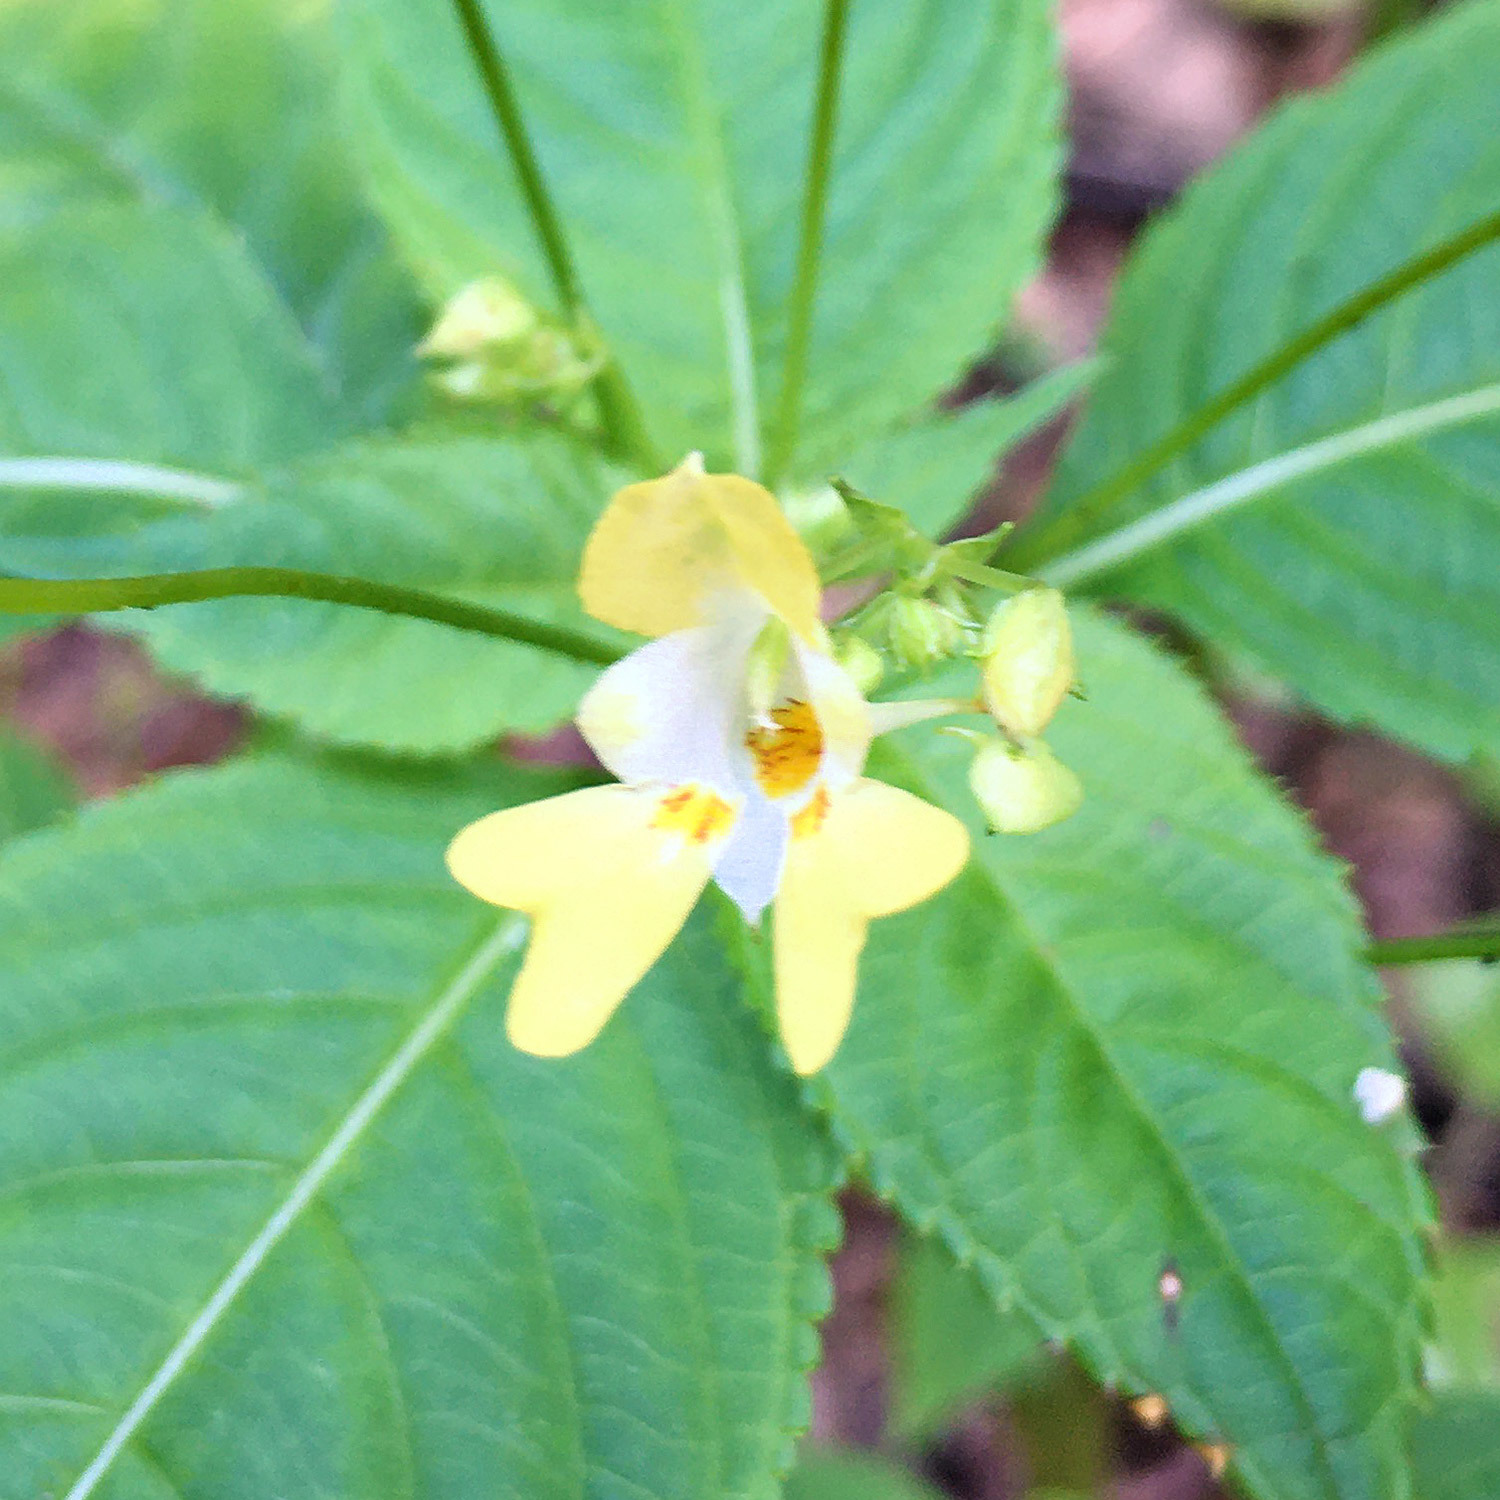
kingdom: Plantae
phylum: Tracheophyta
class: Magnoliopsida
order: Ericales
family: Balsaminaceae
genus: Impatiens
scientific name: Impatiens parviflora
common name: Small balsam
